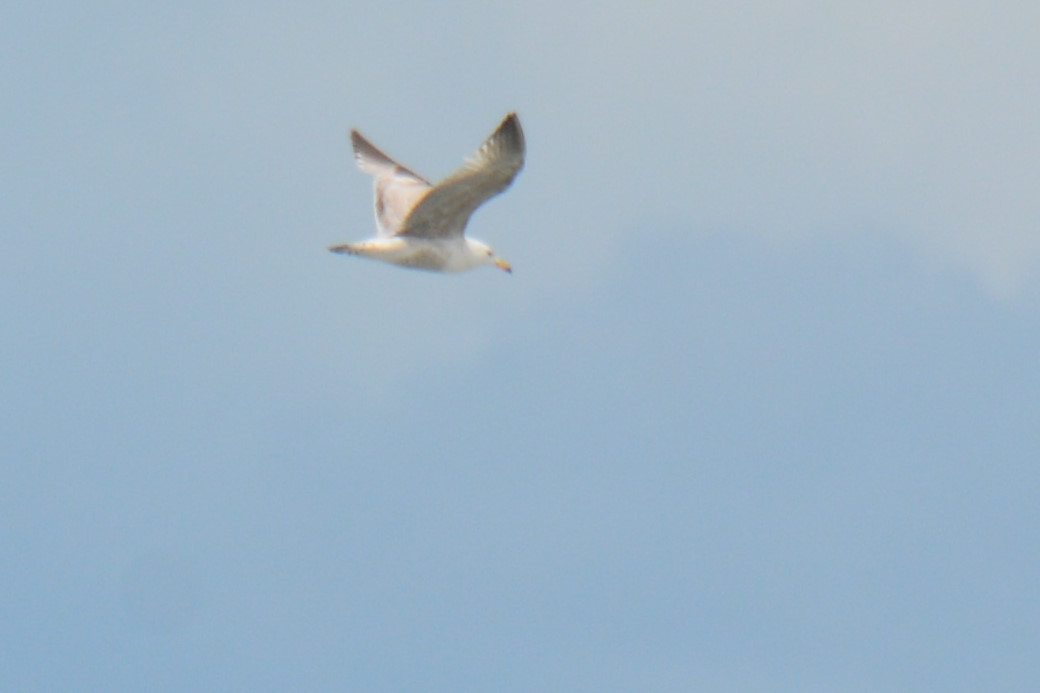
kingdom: Animalia
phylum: Chordata
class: Aves
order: Charadriiformes
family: Laridae
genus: Larus
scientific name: Larus argentatus
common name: Herring gull
